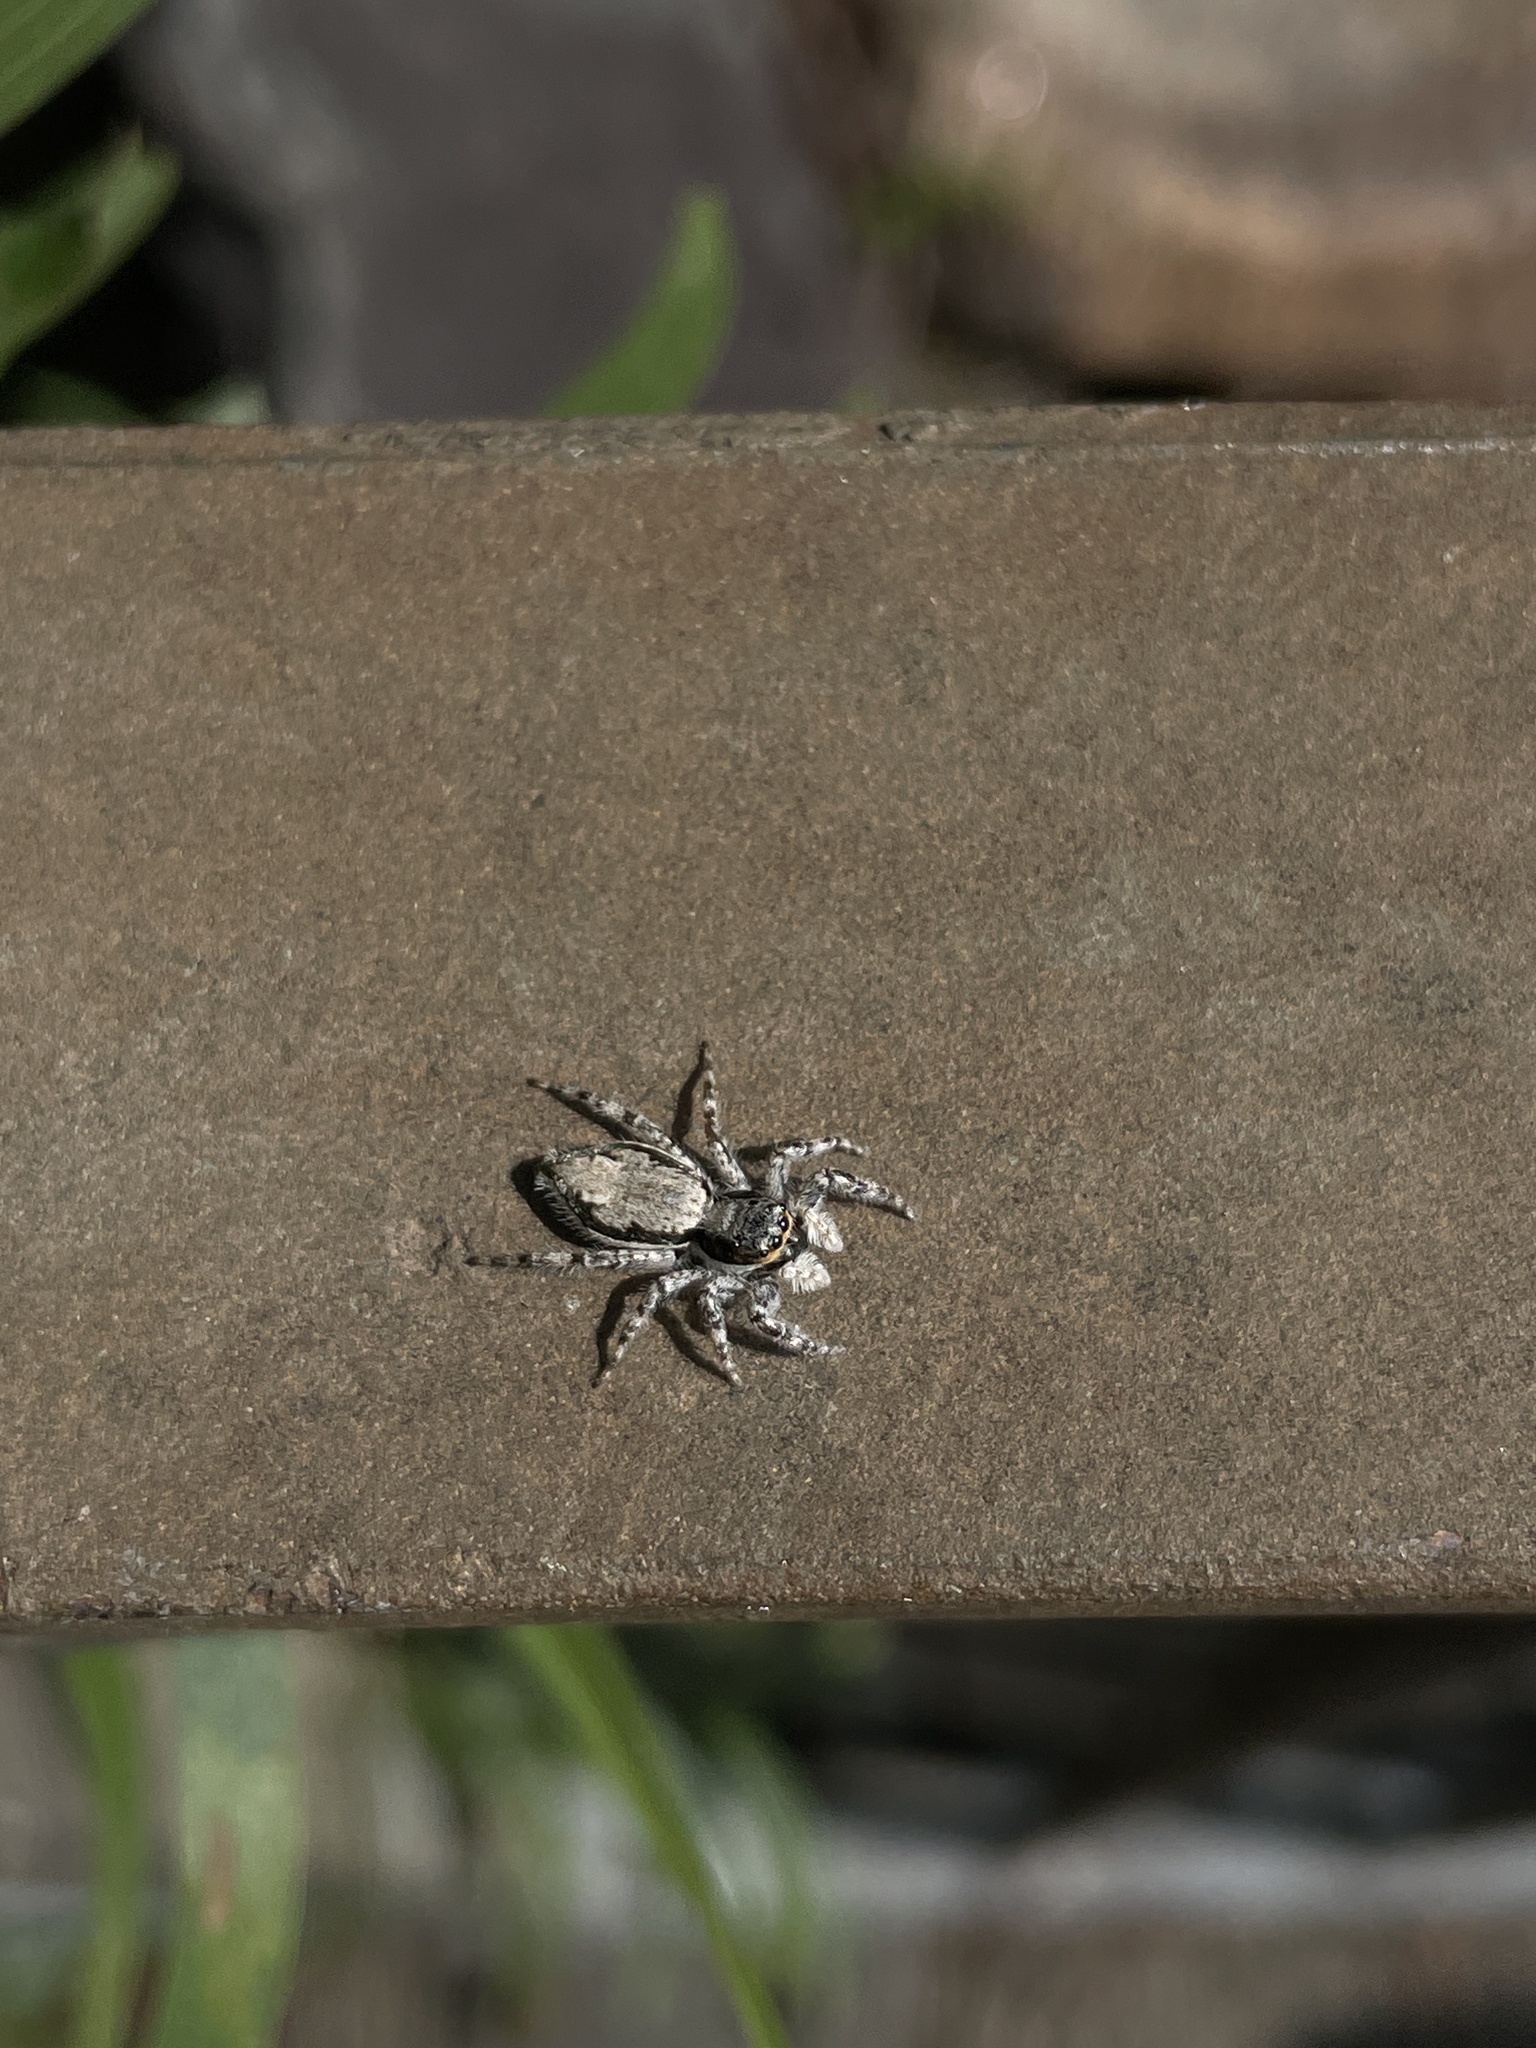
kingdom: Animalia
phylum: Arthropoda
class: Arachnida
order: Araneae
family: Salticidae
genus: Menemerus
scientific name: Menemerus bivittatus
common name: Gray wall jumper
